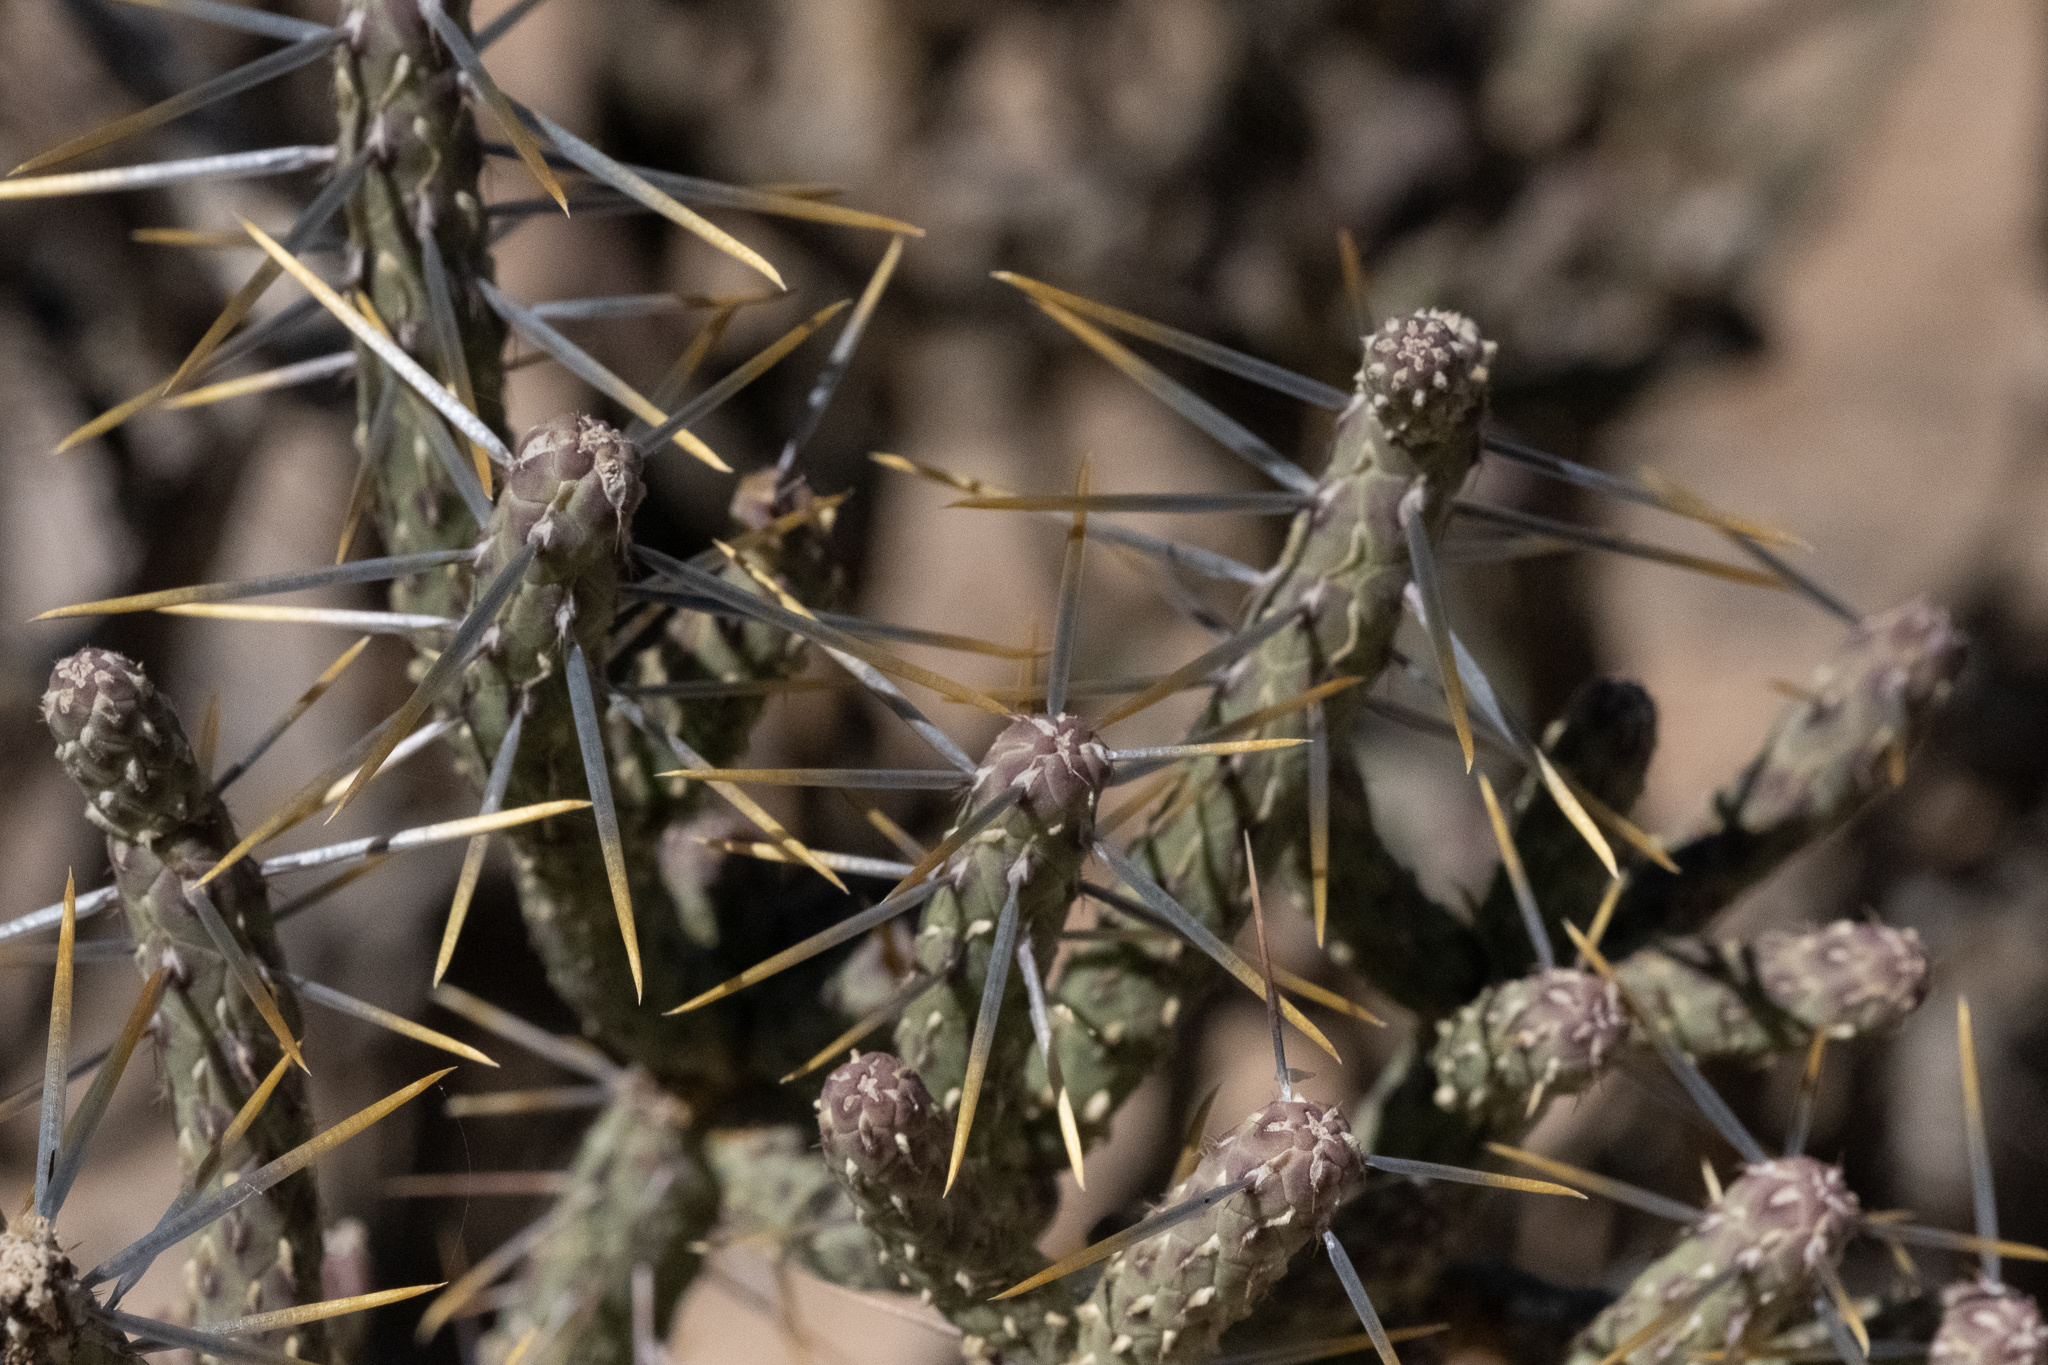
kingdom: Plantae
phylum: Tracheophyta
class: Magnoliopsida
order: Caryophyllales
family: Cactaceae
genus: Cylindropuntia
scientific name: Cylindropuntia ramosissima
